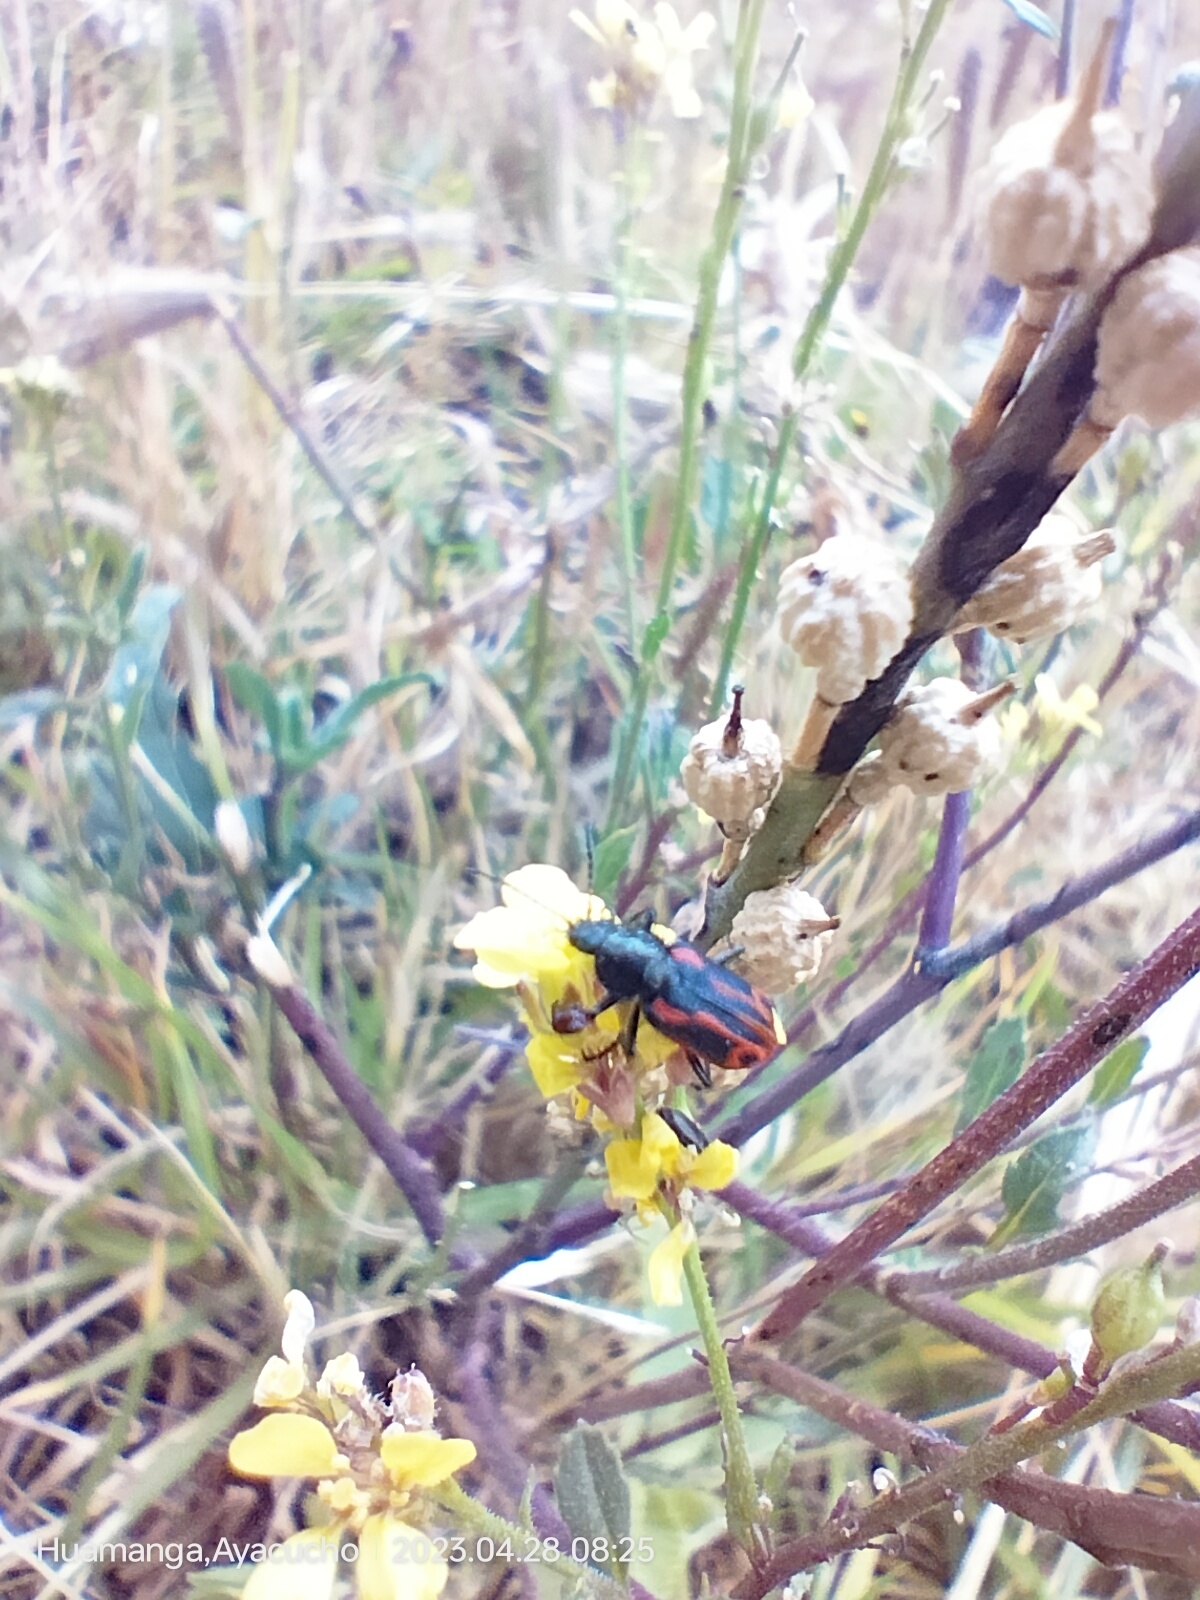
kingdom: Animalia
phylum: Arthropoda
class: Insecta
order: Coleoptera
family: Melyridae
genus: Astylus
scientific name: Astylus
